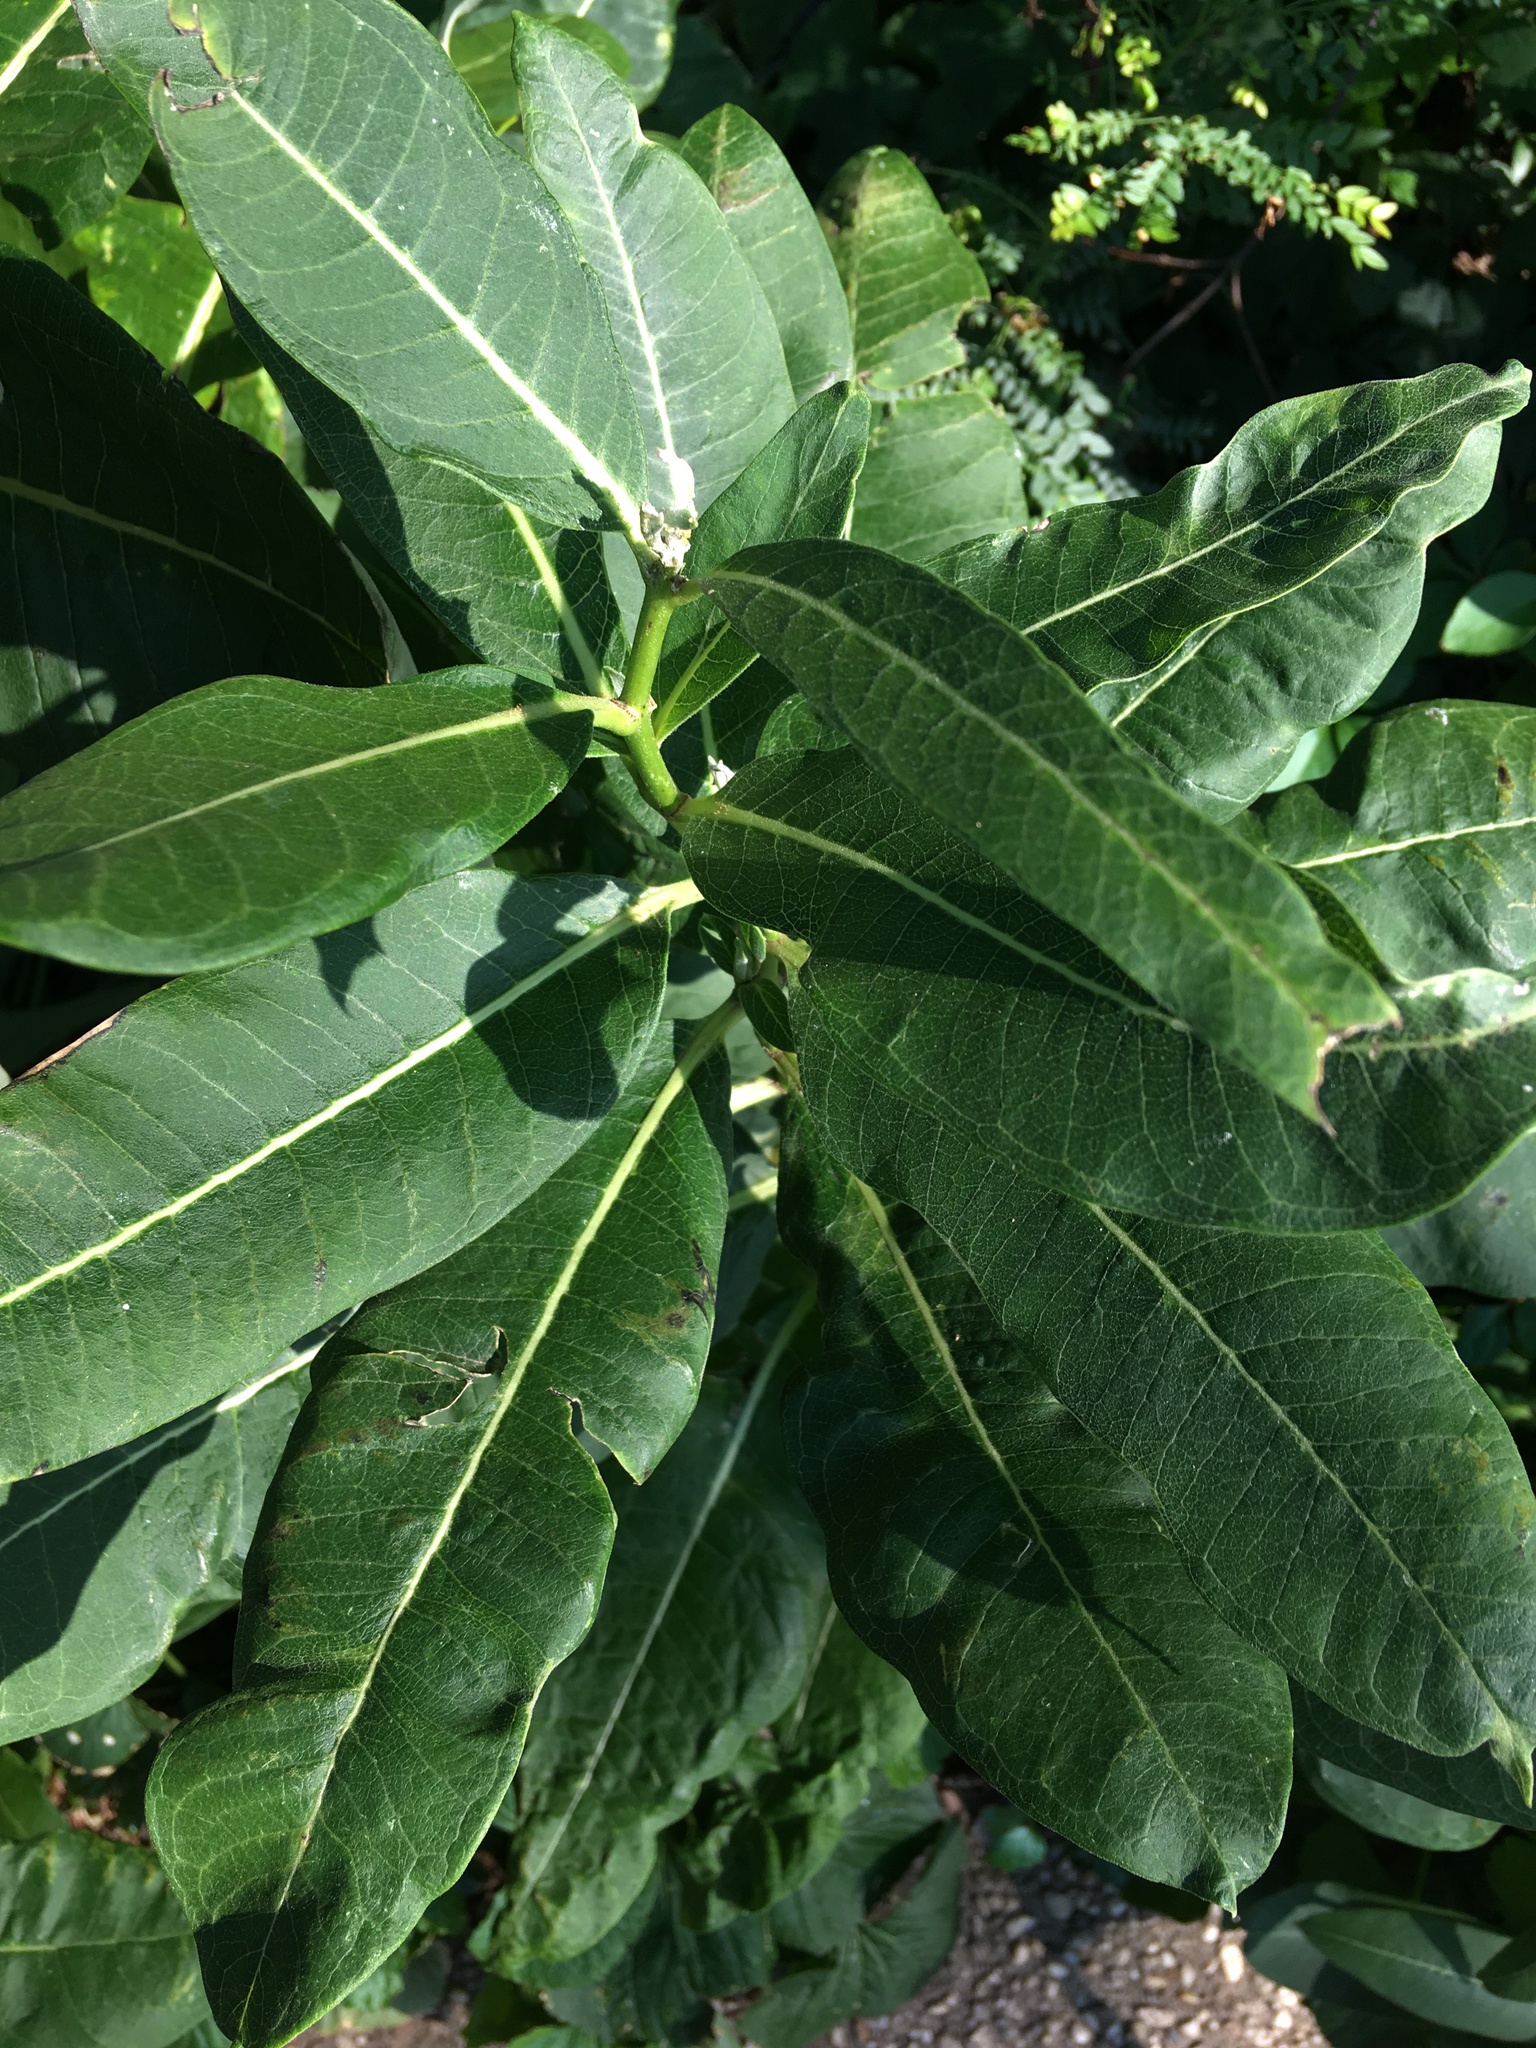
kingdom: Plantae
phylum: Tracheophyta
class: Magnoliopsida
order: Gentianales
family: Apocynaceae
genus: Asclepias
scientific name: Asclepias syriaca
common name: Common milkweed
